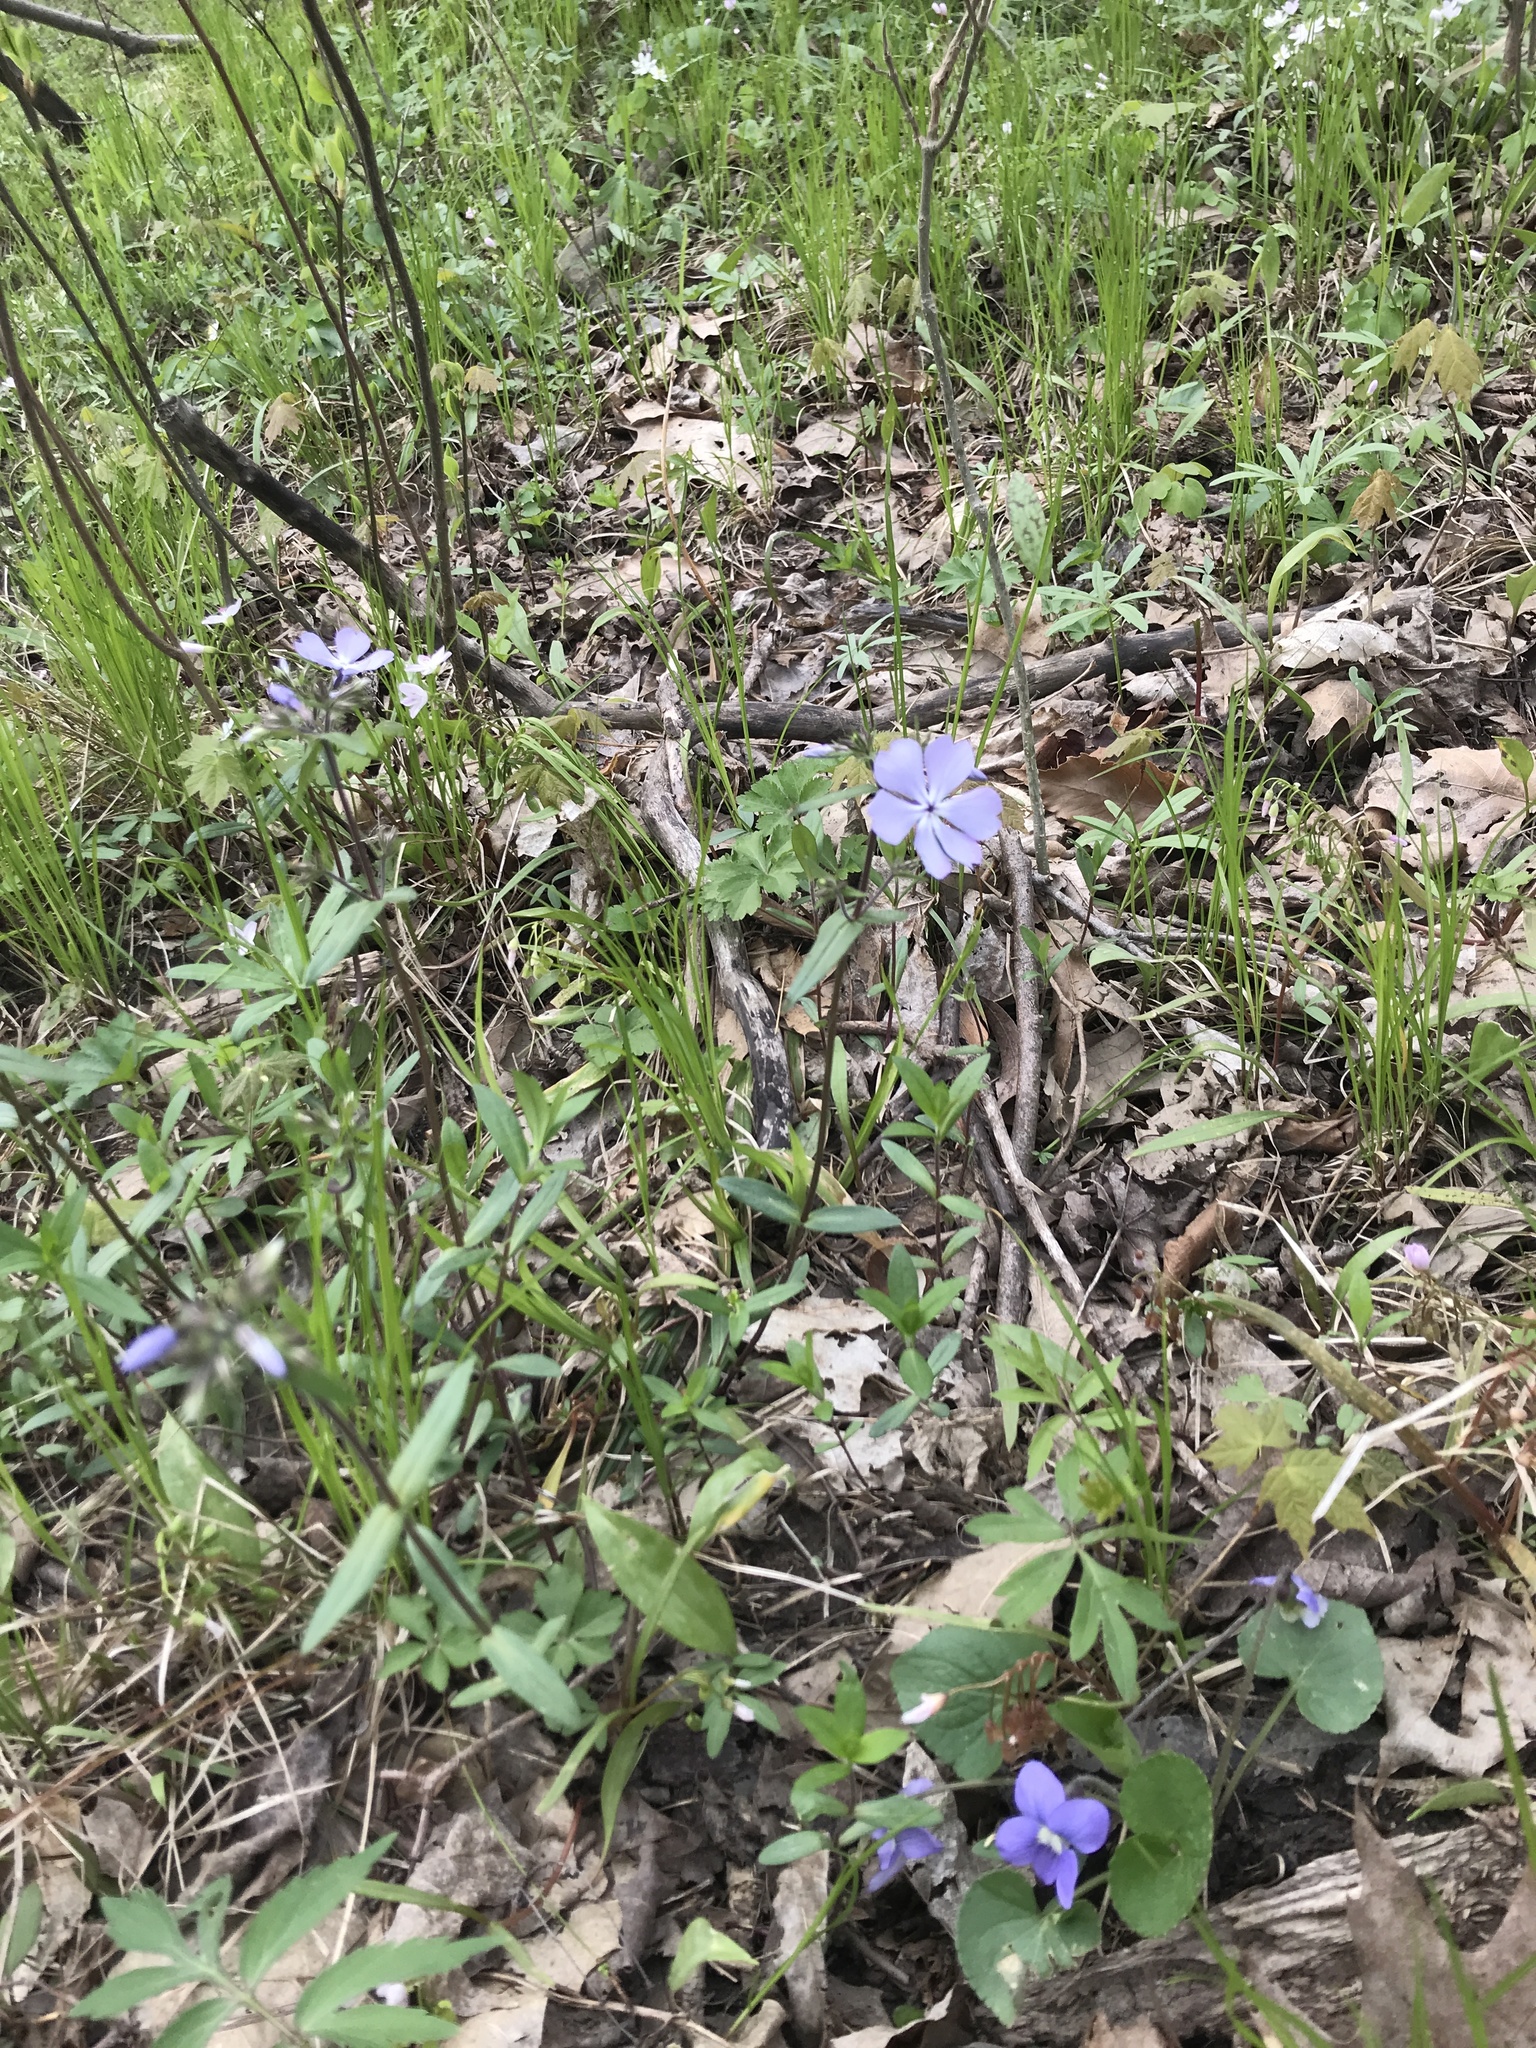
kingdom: Plantae
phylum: Tracheophyta
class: Magnoliopsida
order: Ericales
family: Polemoniaceae
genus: Phlox
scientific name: Phlox divaricata
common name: Blue phlox
